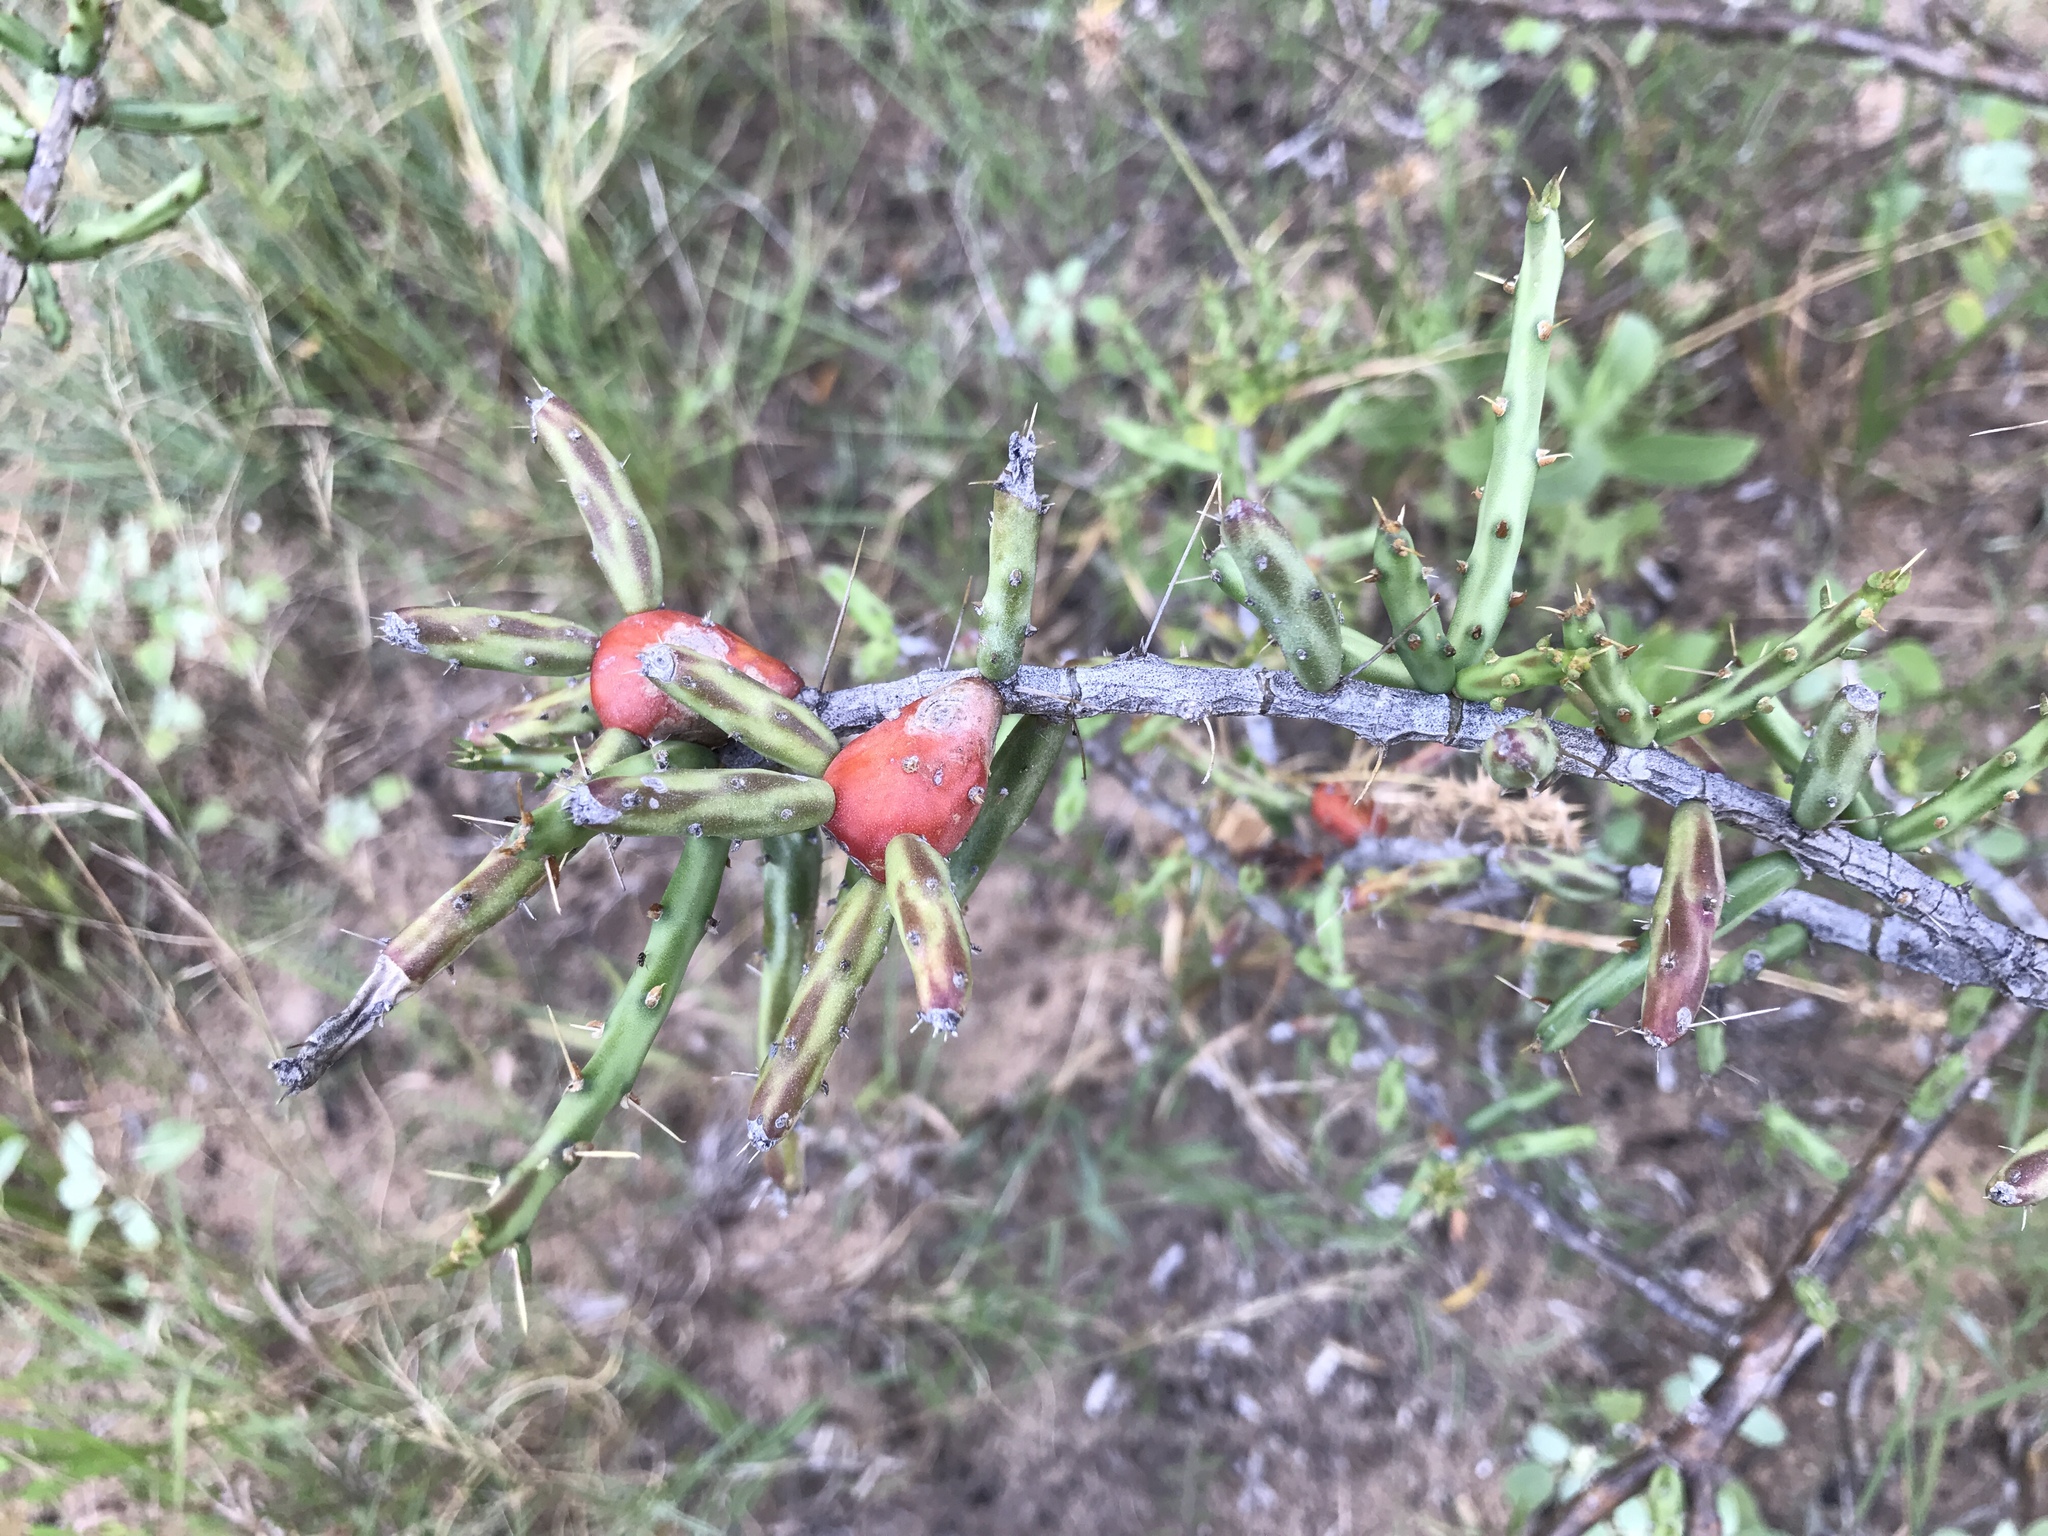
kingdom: Plantae
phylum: Tracheophyta
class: Magnoliopsida
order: Caryophyllales
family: Cactaceae
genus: Cylindropuntia
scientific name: Cylindropuntia leptocaulis
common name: Christmas cactus
